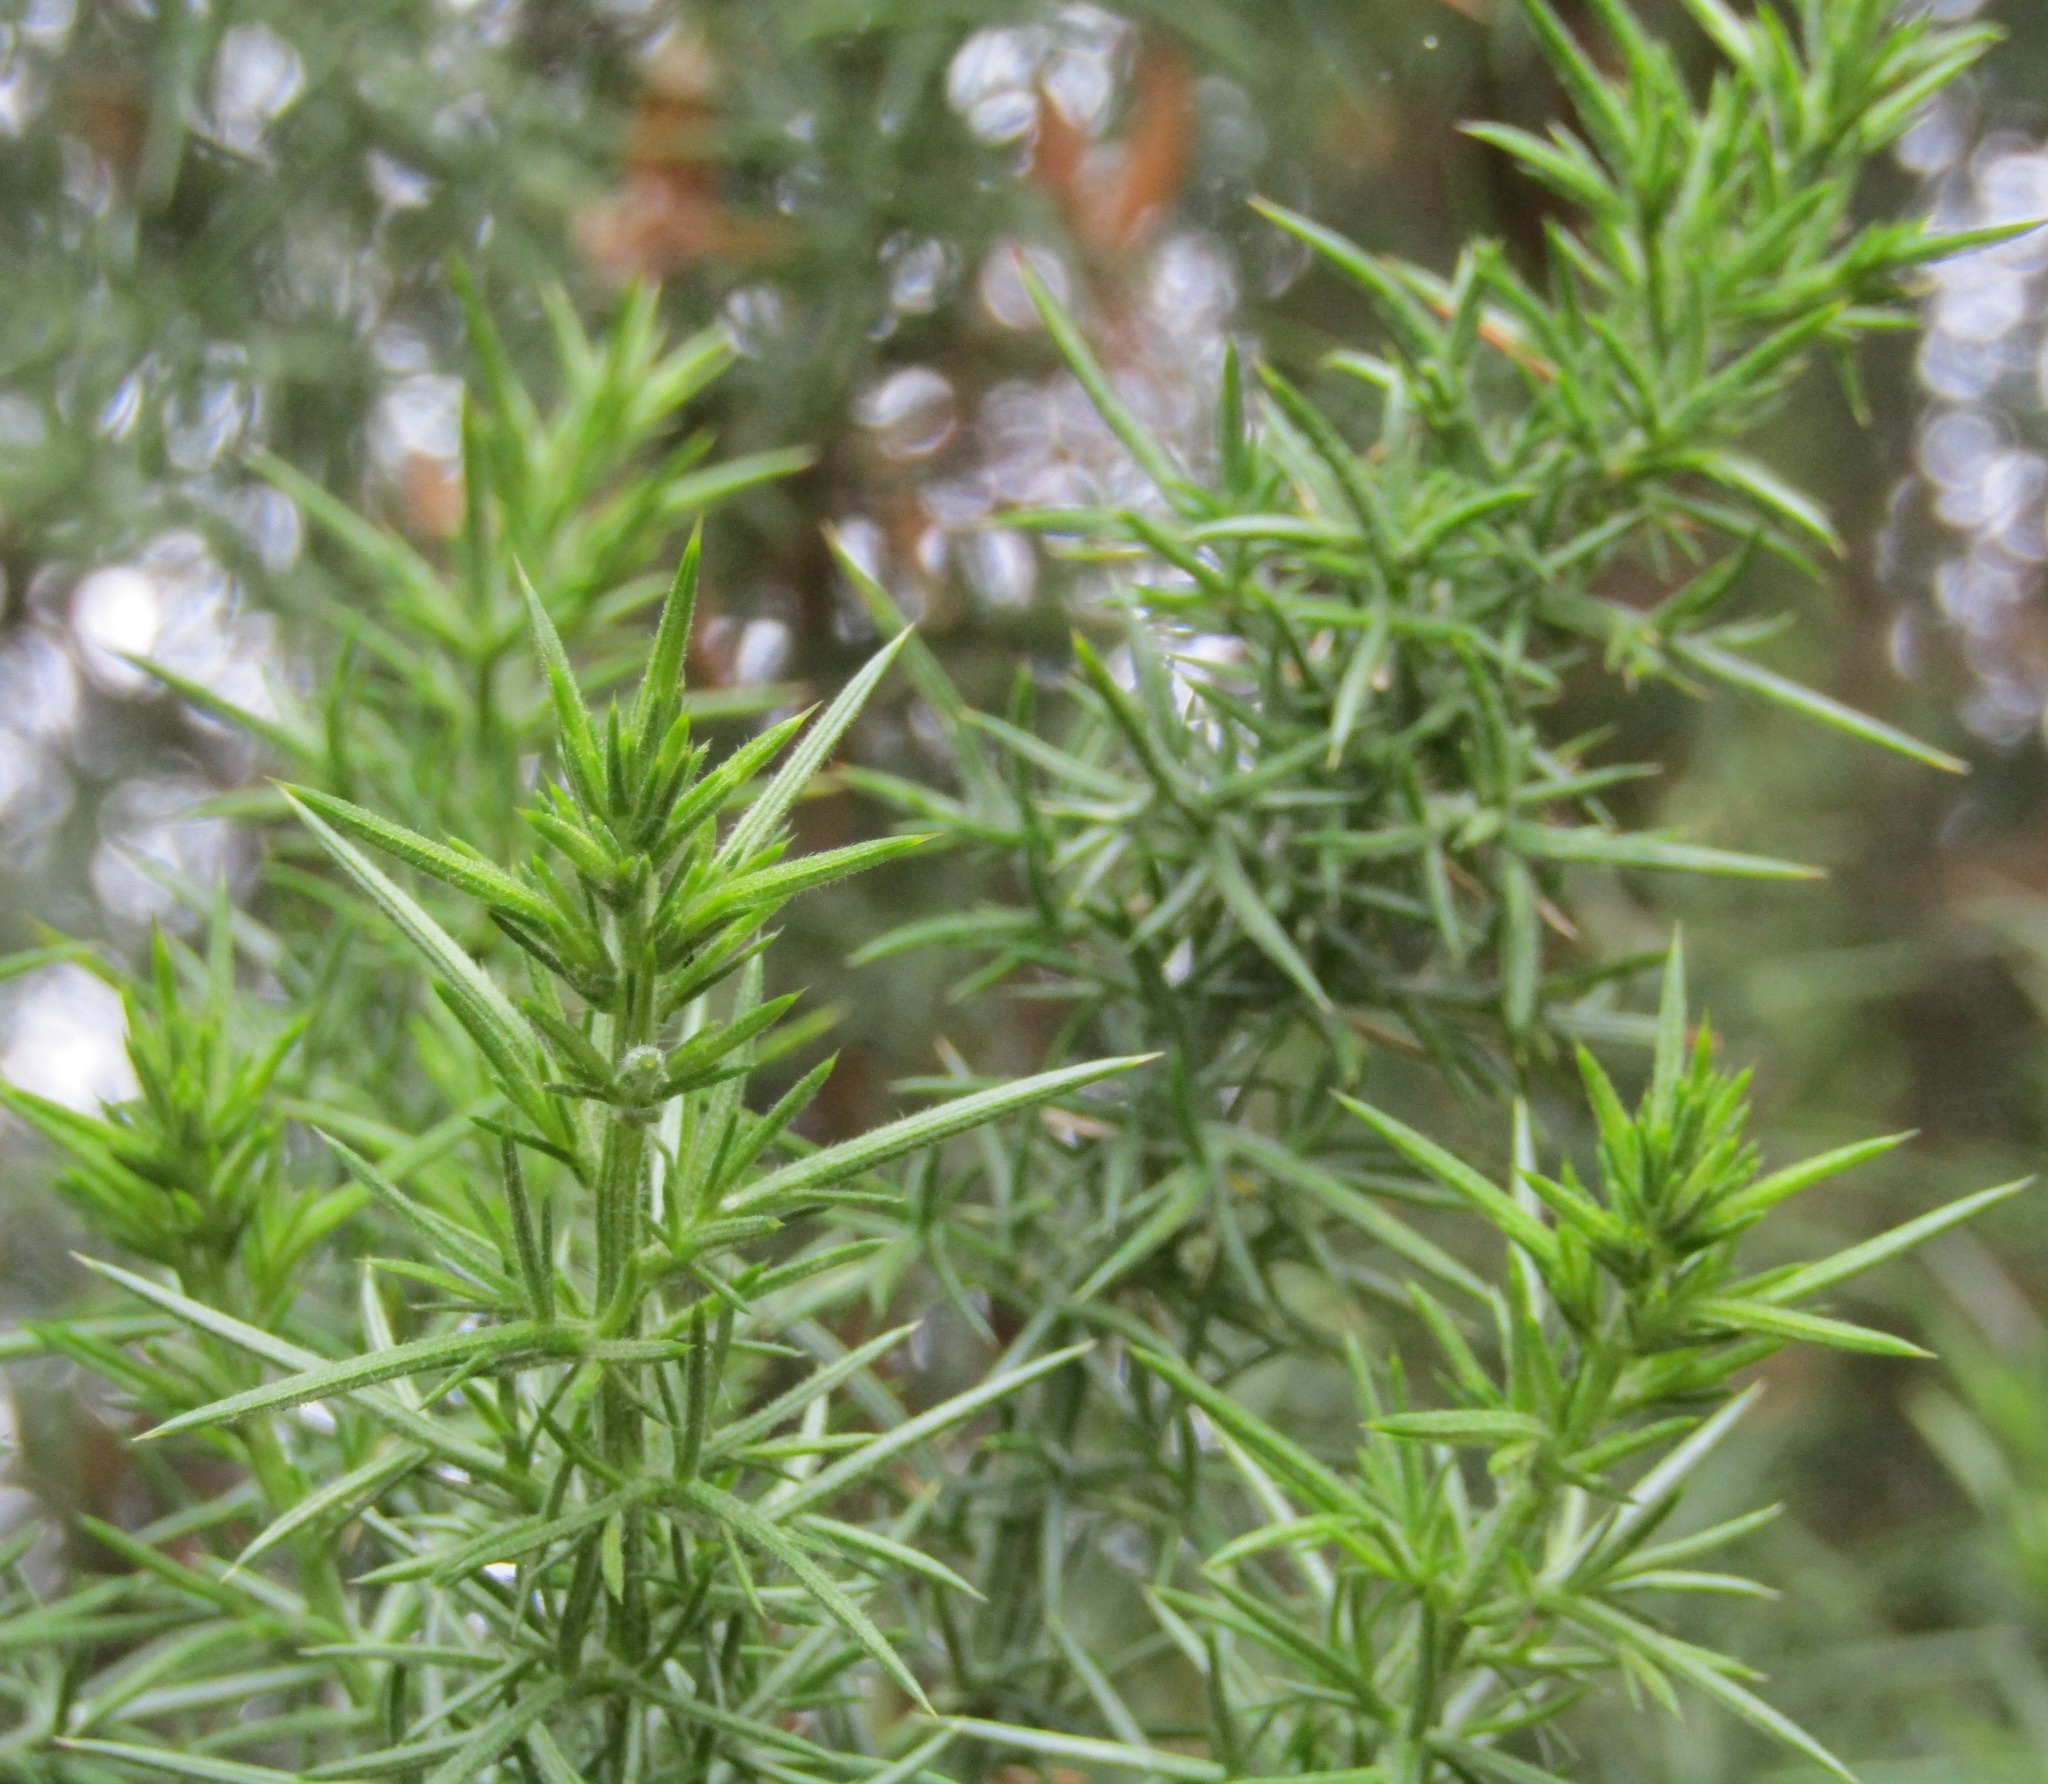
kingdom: Plantae
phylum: Tracheophyta
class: Magnoliopsida
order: Fabales
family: Fabaceae
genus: Ulex
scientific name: Ulex europaeus
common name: Common gorse
